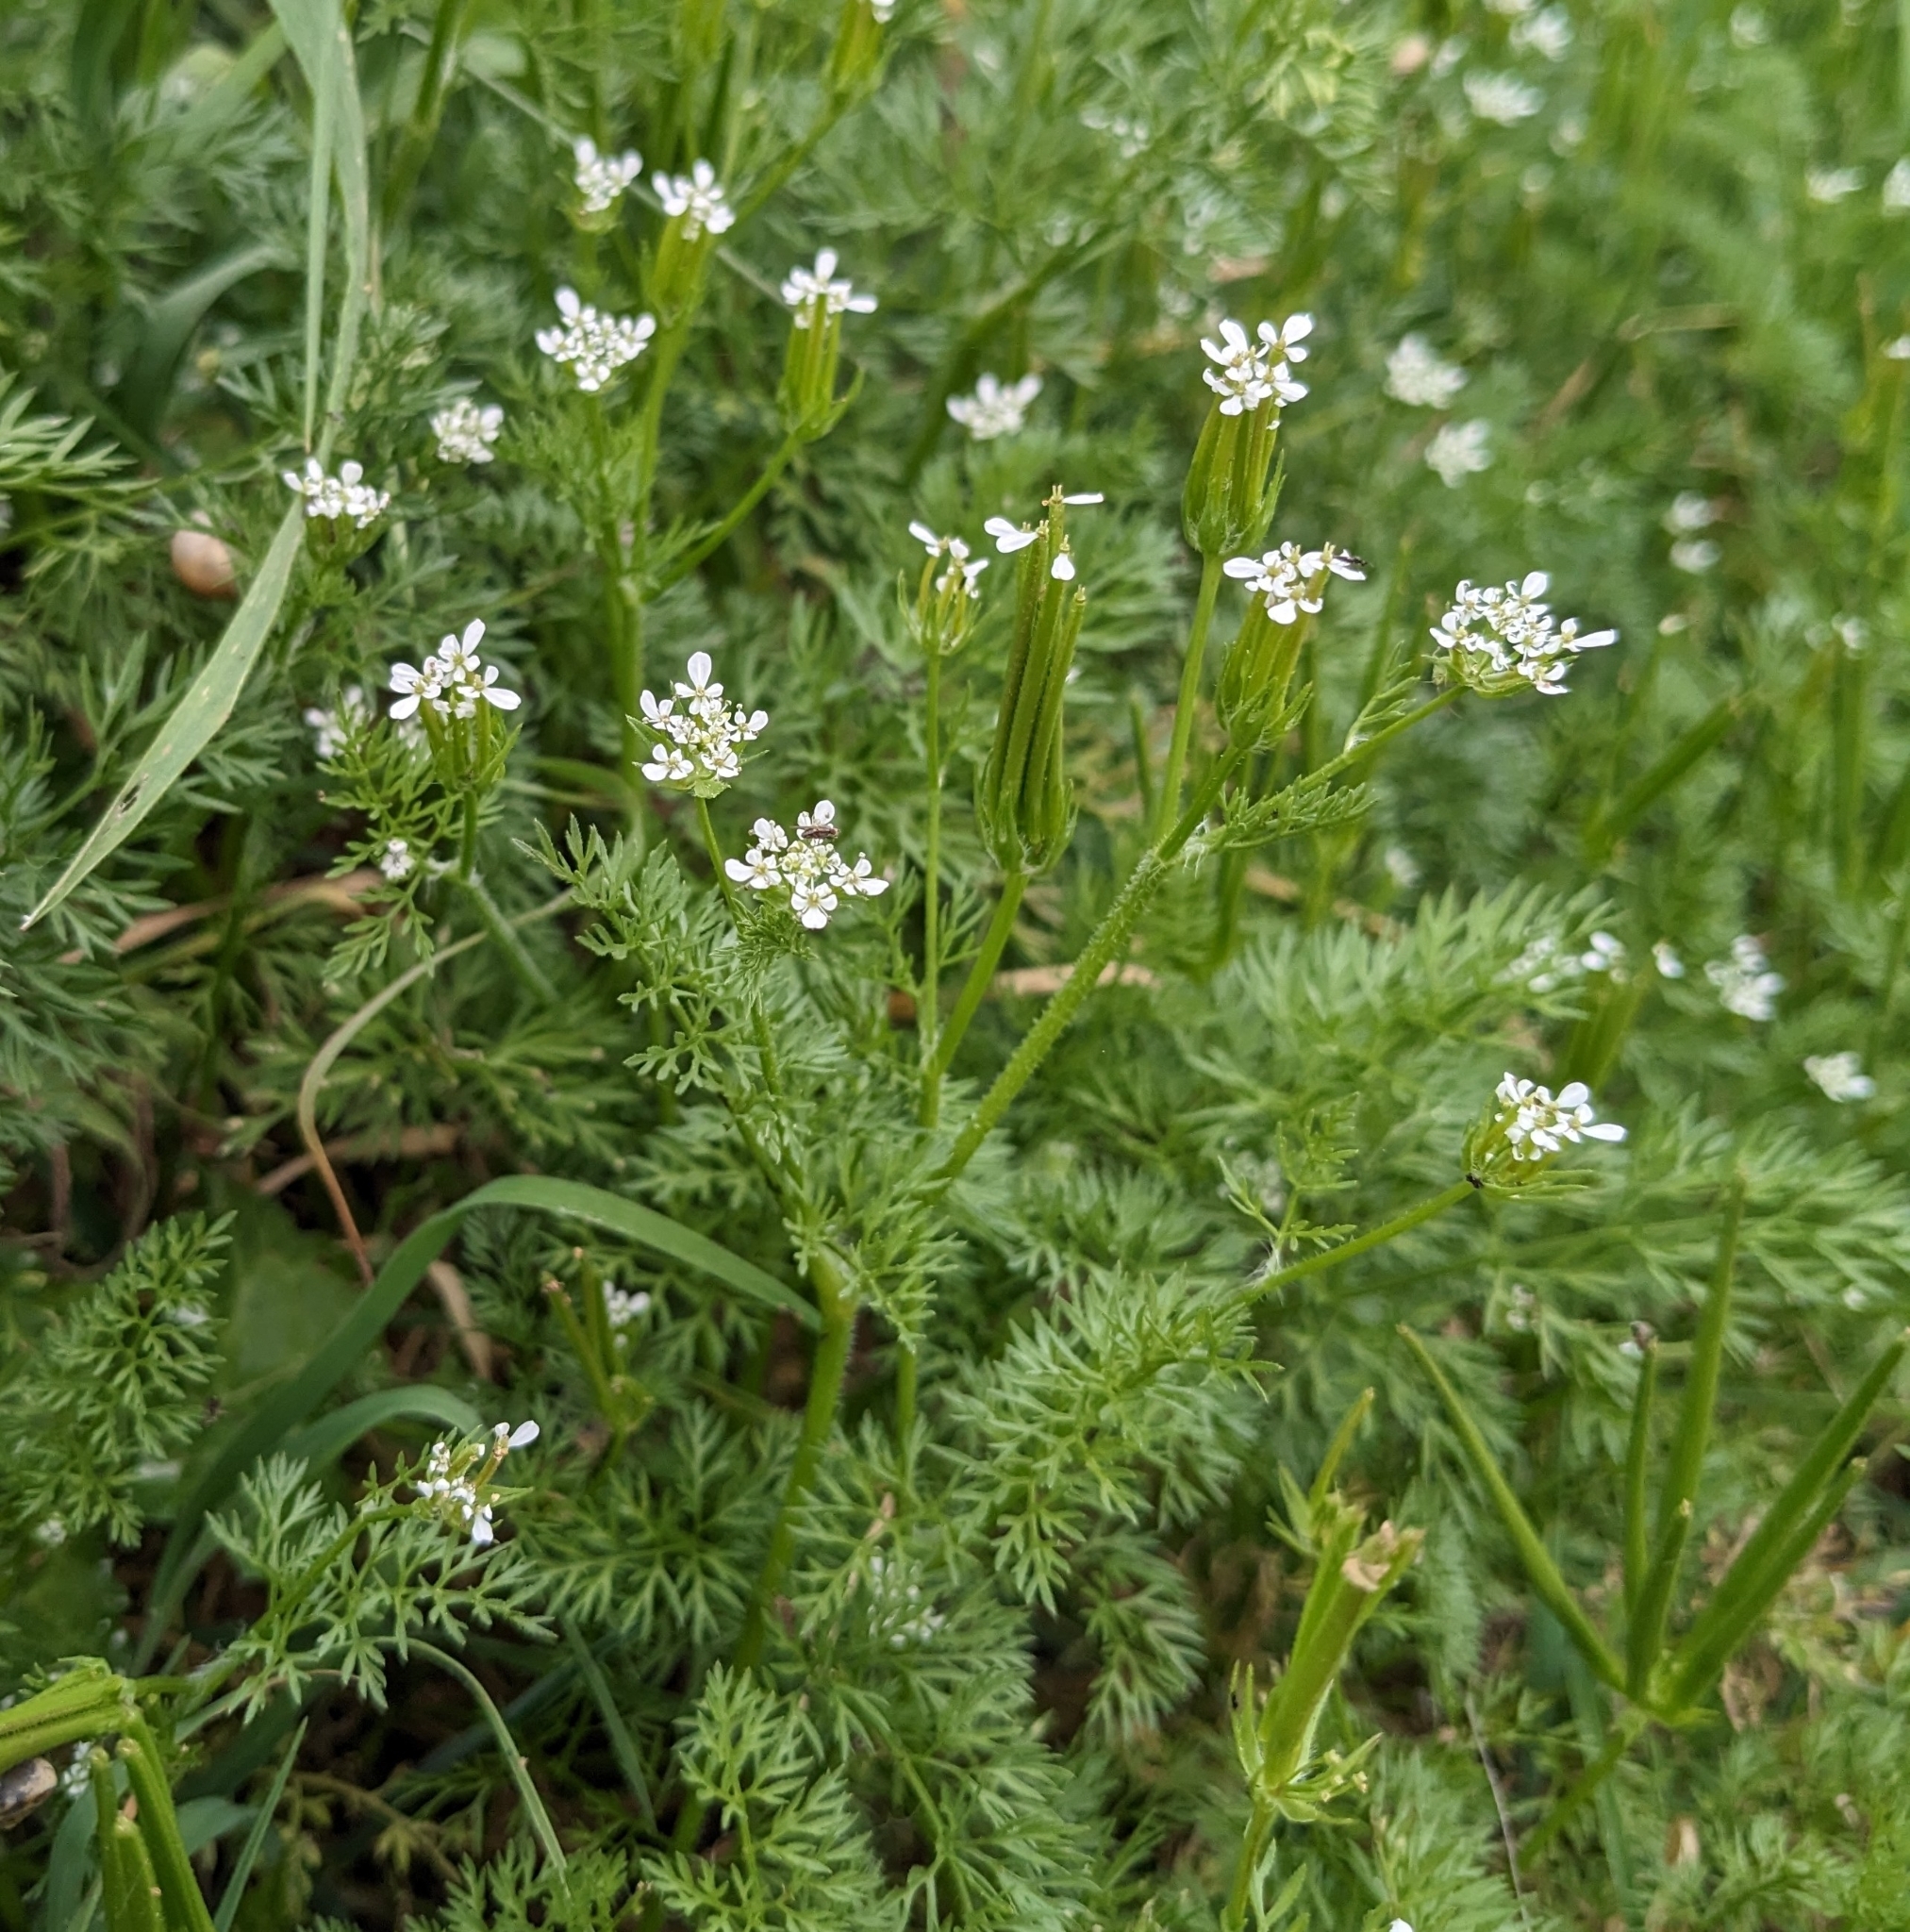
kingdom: Plantae
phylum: Tracheophyta
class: Magnoliopsida
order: Apiales
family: Apiaceae
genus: Scandix
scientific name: Scandix pecten-veneris
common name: Shepherd's-needle
